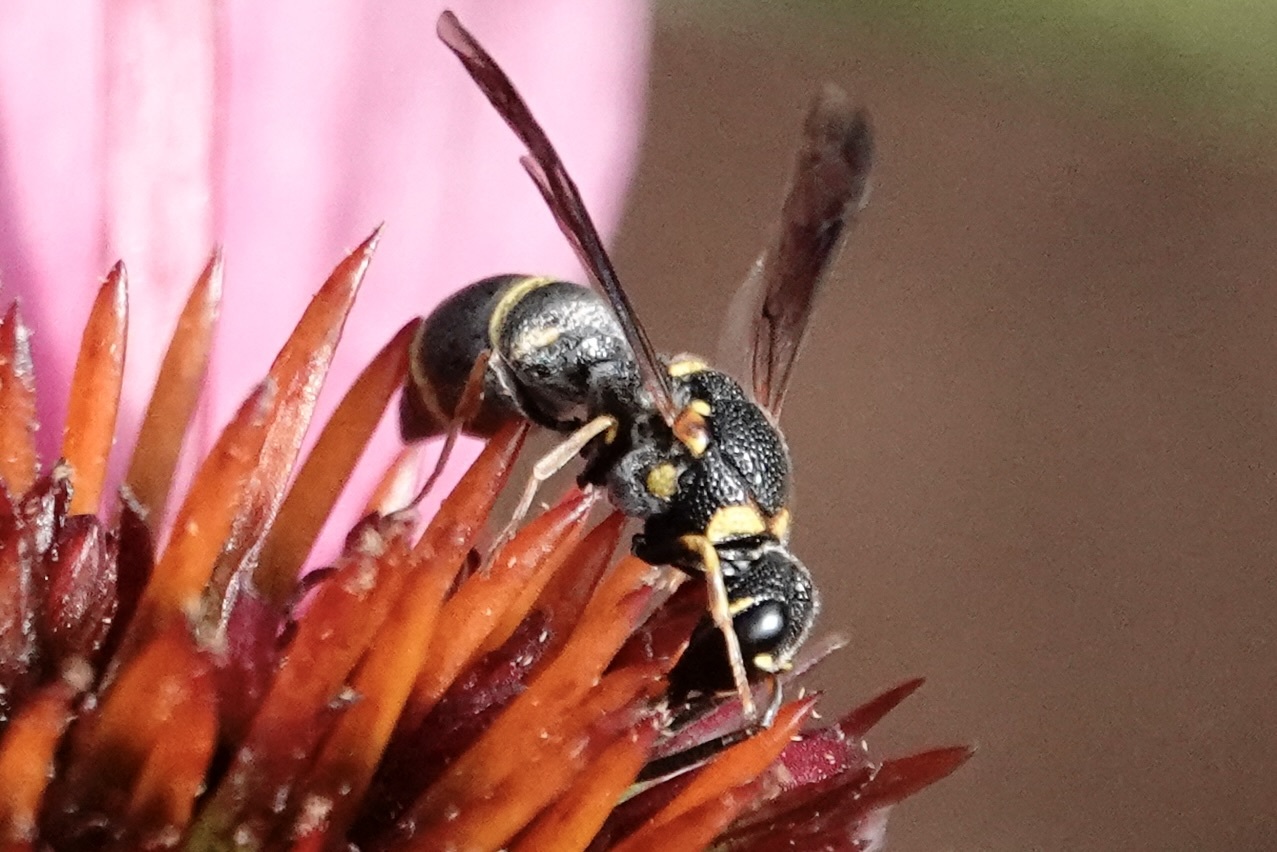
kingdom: Animalia
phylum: Arthropoda
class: Insecta
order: Hymenoptera
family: Eumenidae
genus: Parancistrocerus
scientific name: Parancistrocerus fulvipes
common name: Potter wasp
